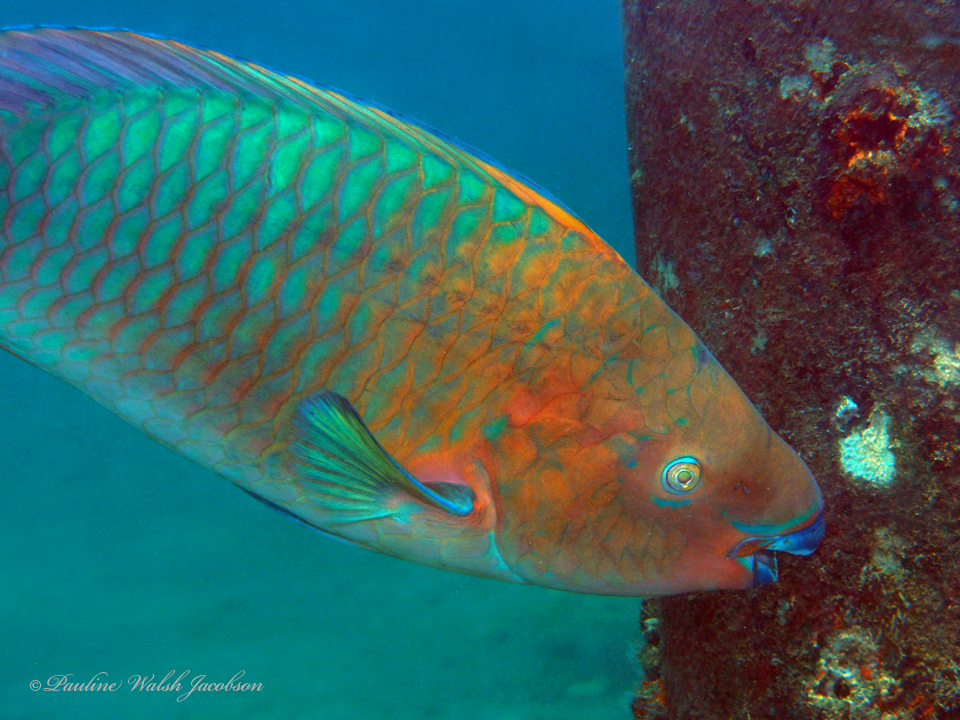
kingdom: Animalia
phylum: Chordata
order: Perciformes
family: Scaridae
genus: Scarus
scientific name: Scarus guacamaia
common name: Rainbow parrotfish
